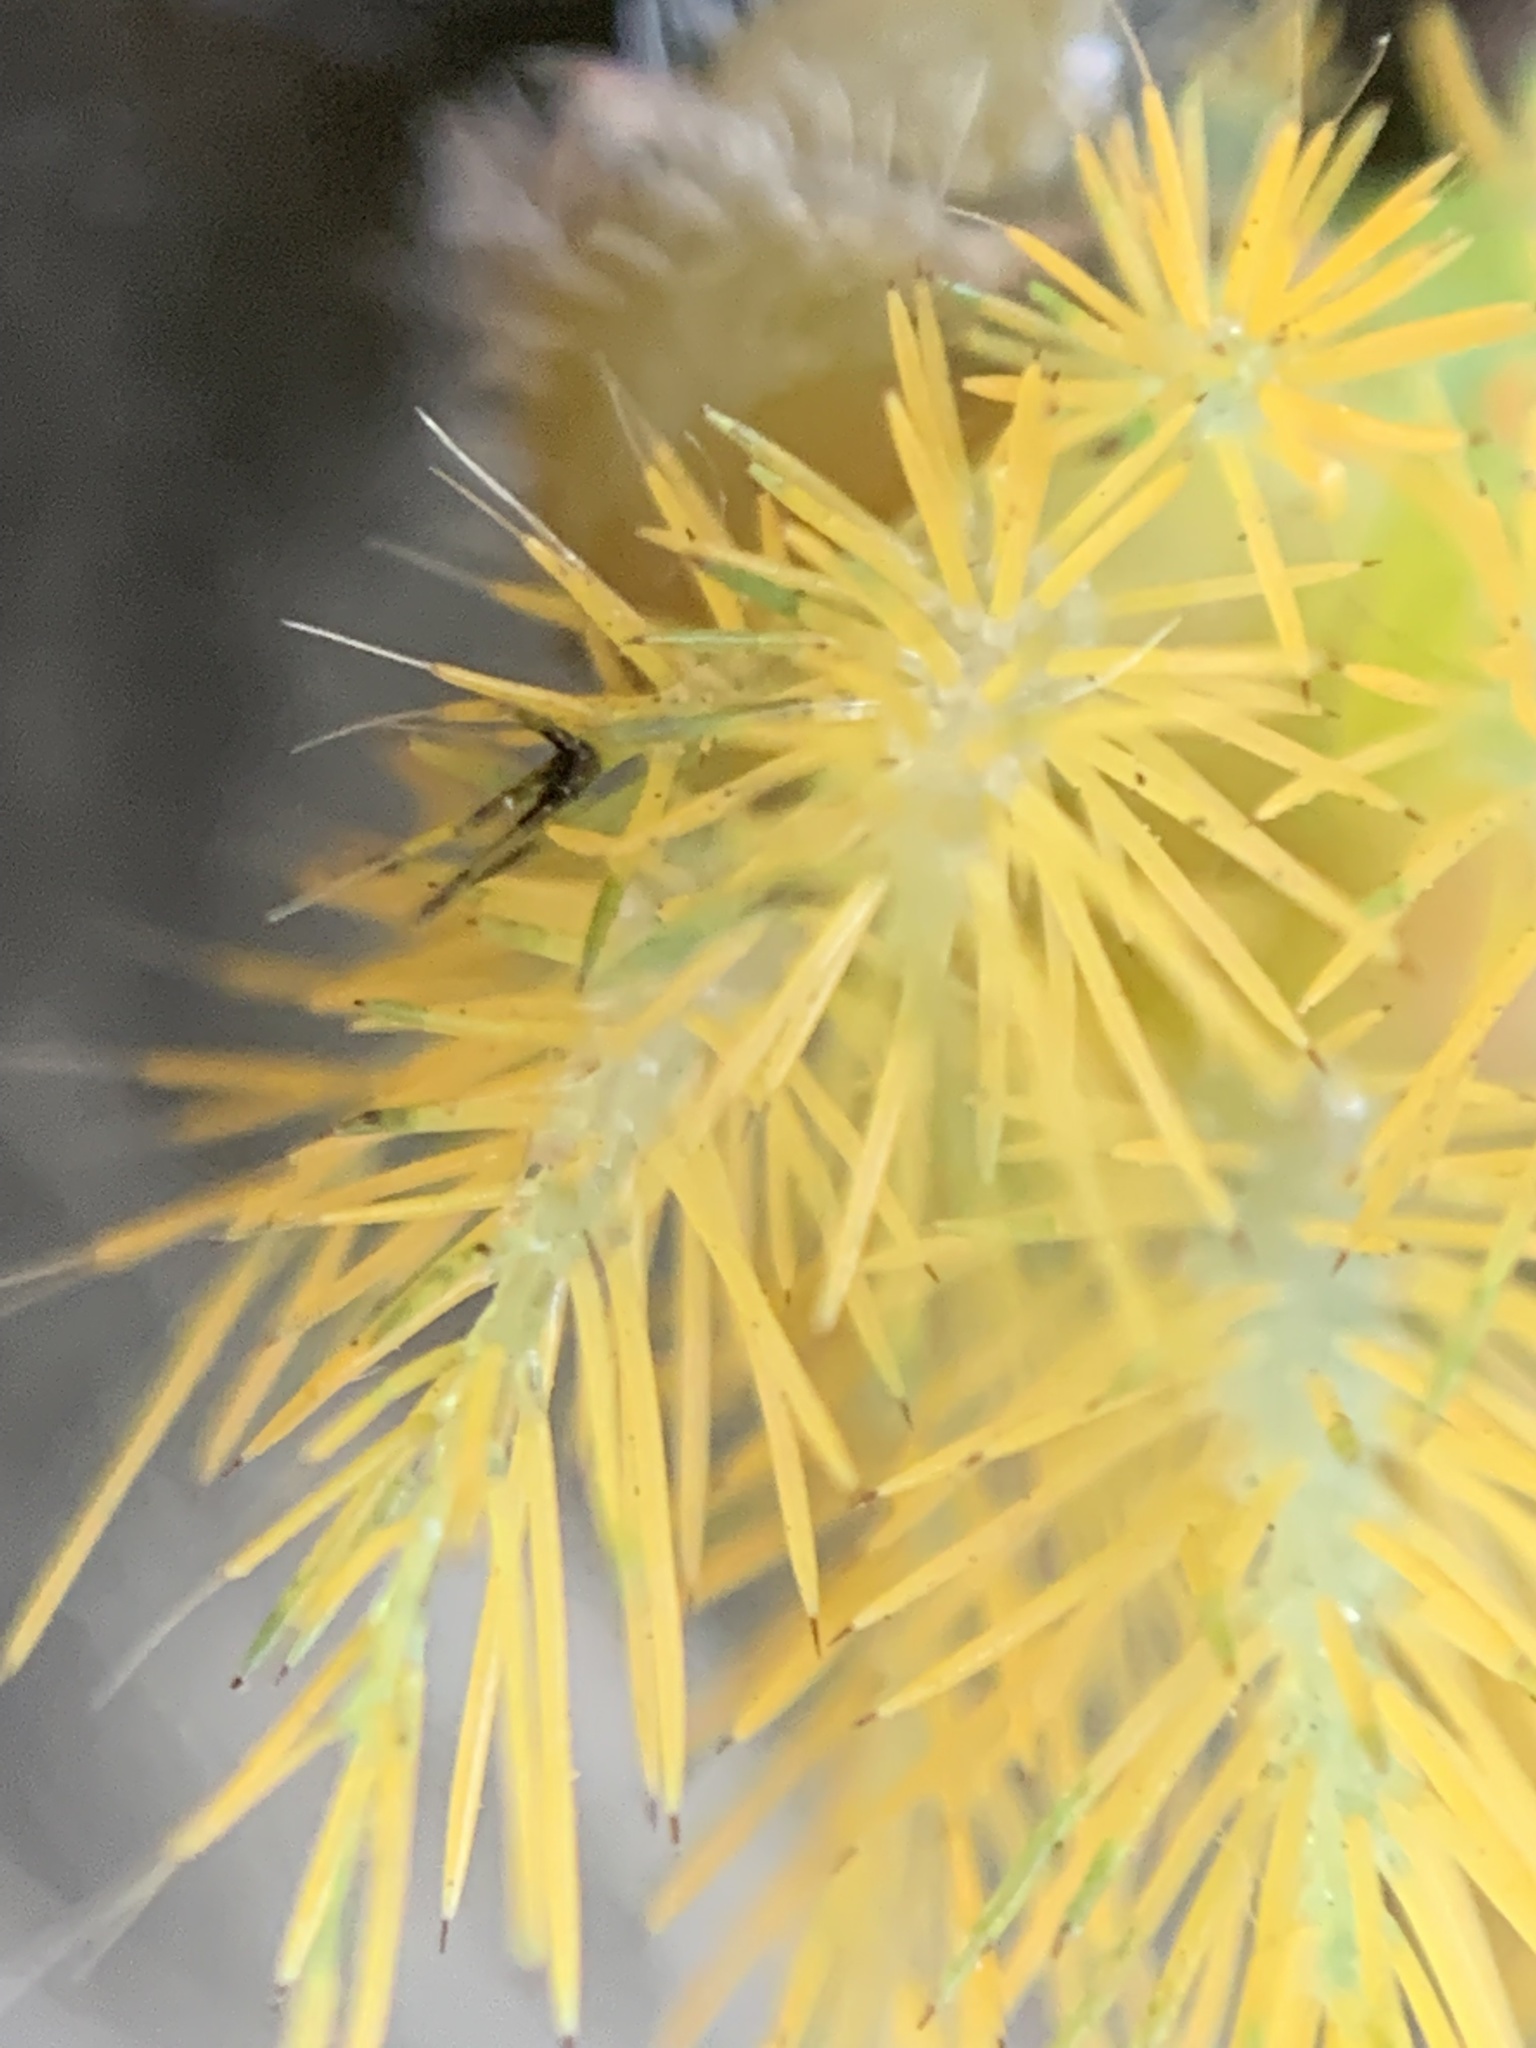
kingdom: Animalia
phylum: Arthropoda
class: Insecta
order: Lepidoptera
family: Saturniidae
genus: Automeris
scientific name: Automeris naranja
